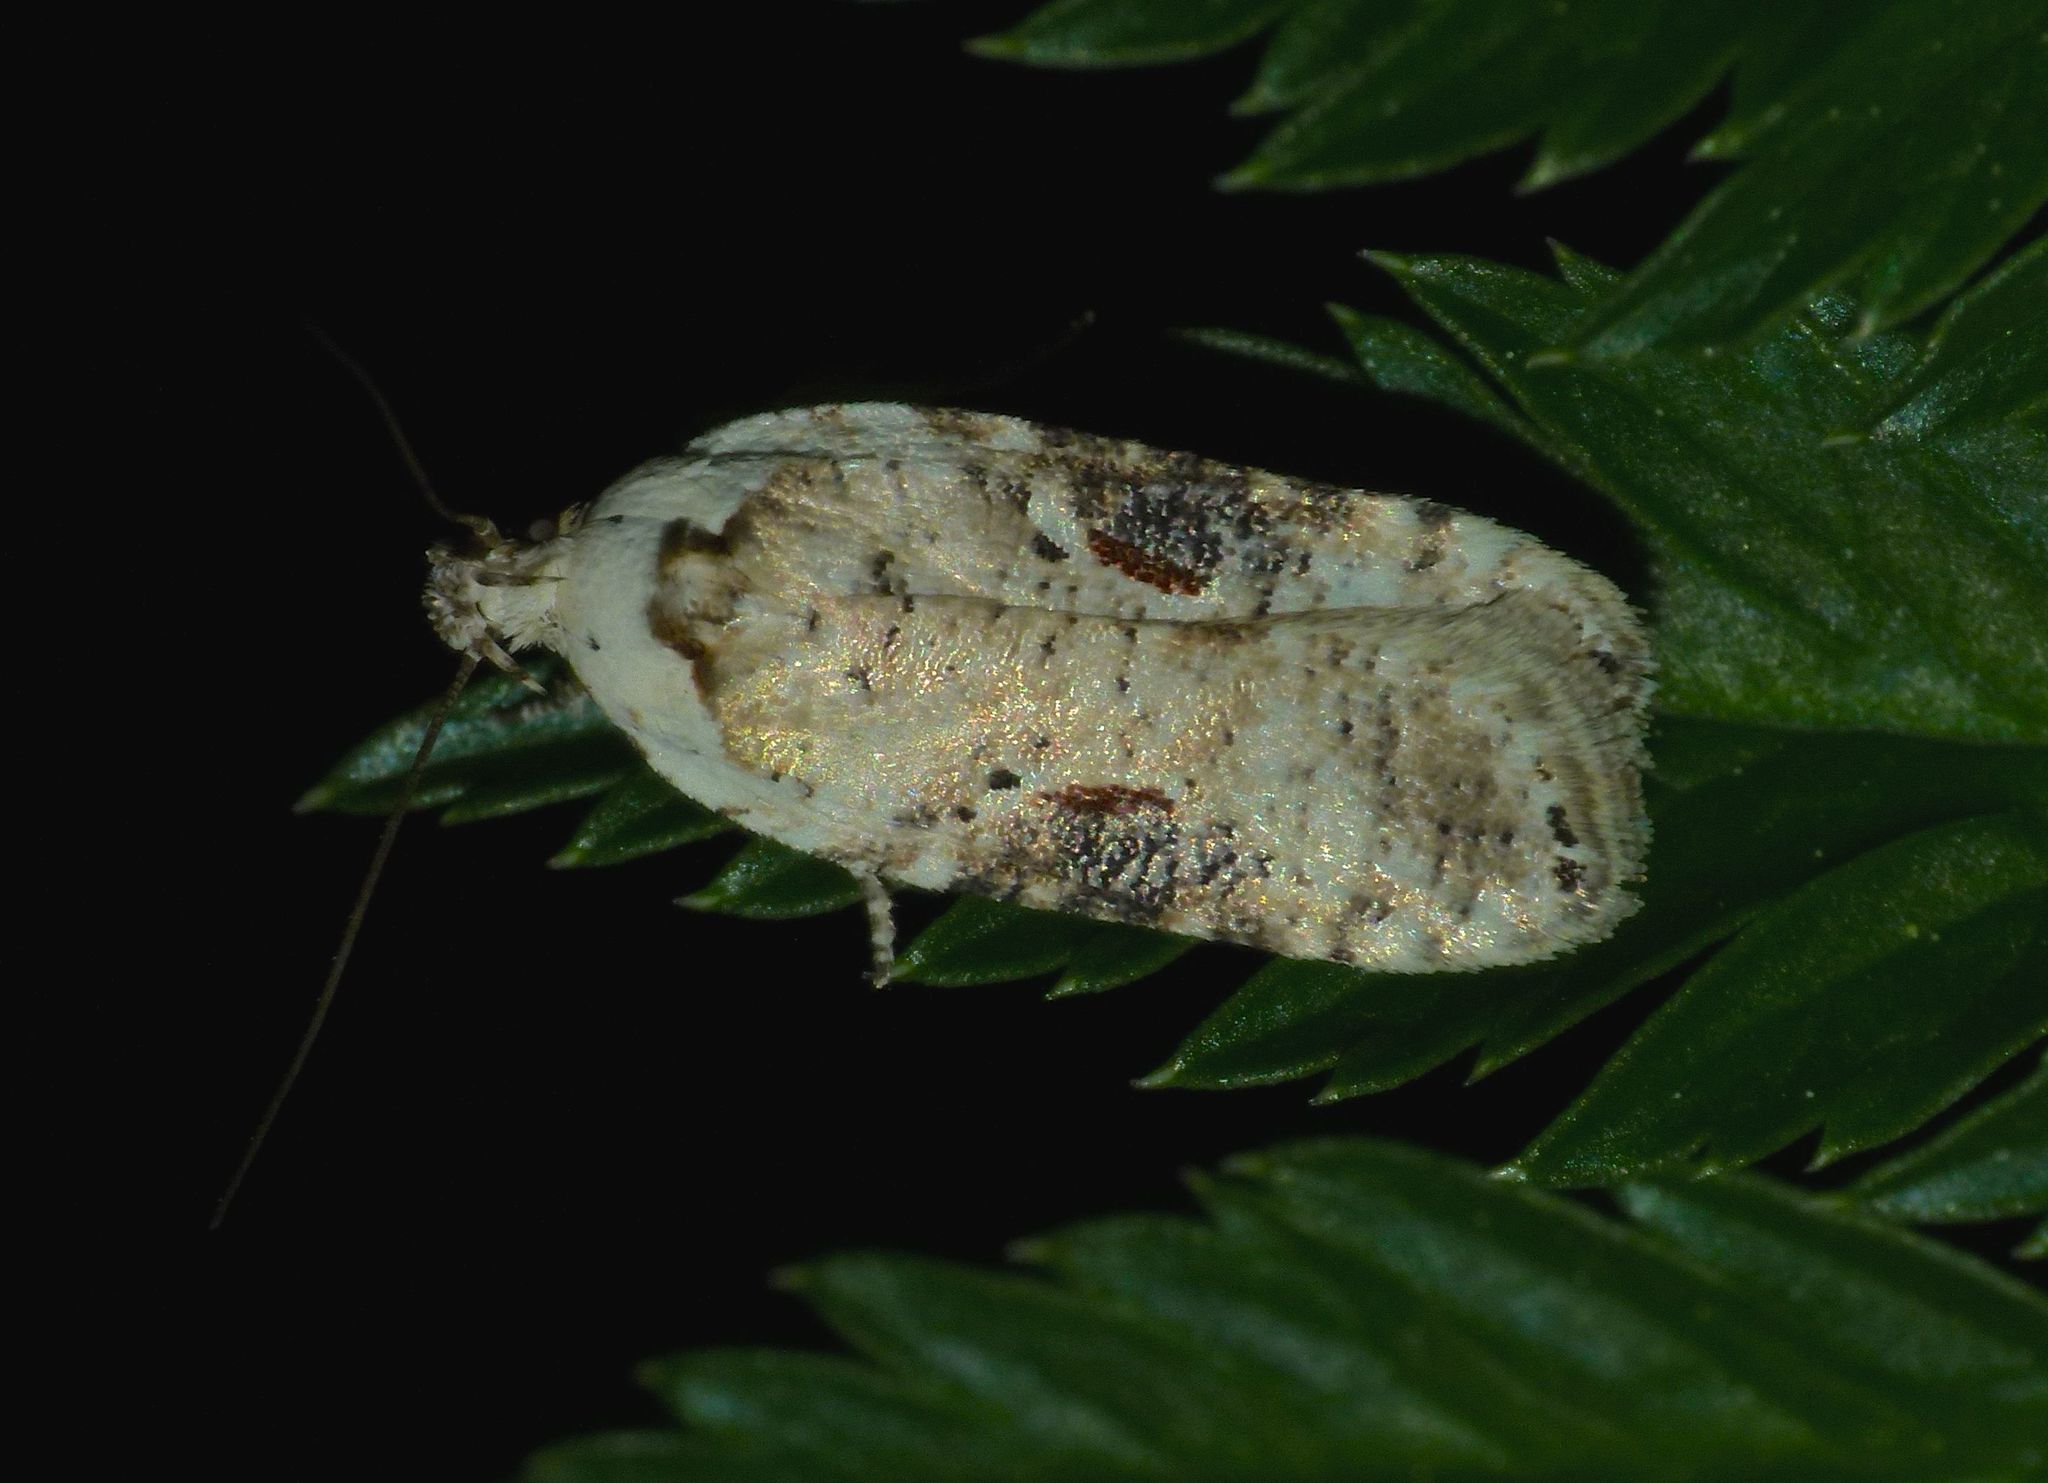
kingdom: Animalia
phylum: Arthropoda
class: Insecta
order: Lepidoptera
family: Depressariidae
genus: Agonopterix
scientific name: Agonopterix alstroemeriana
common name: Moth
